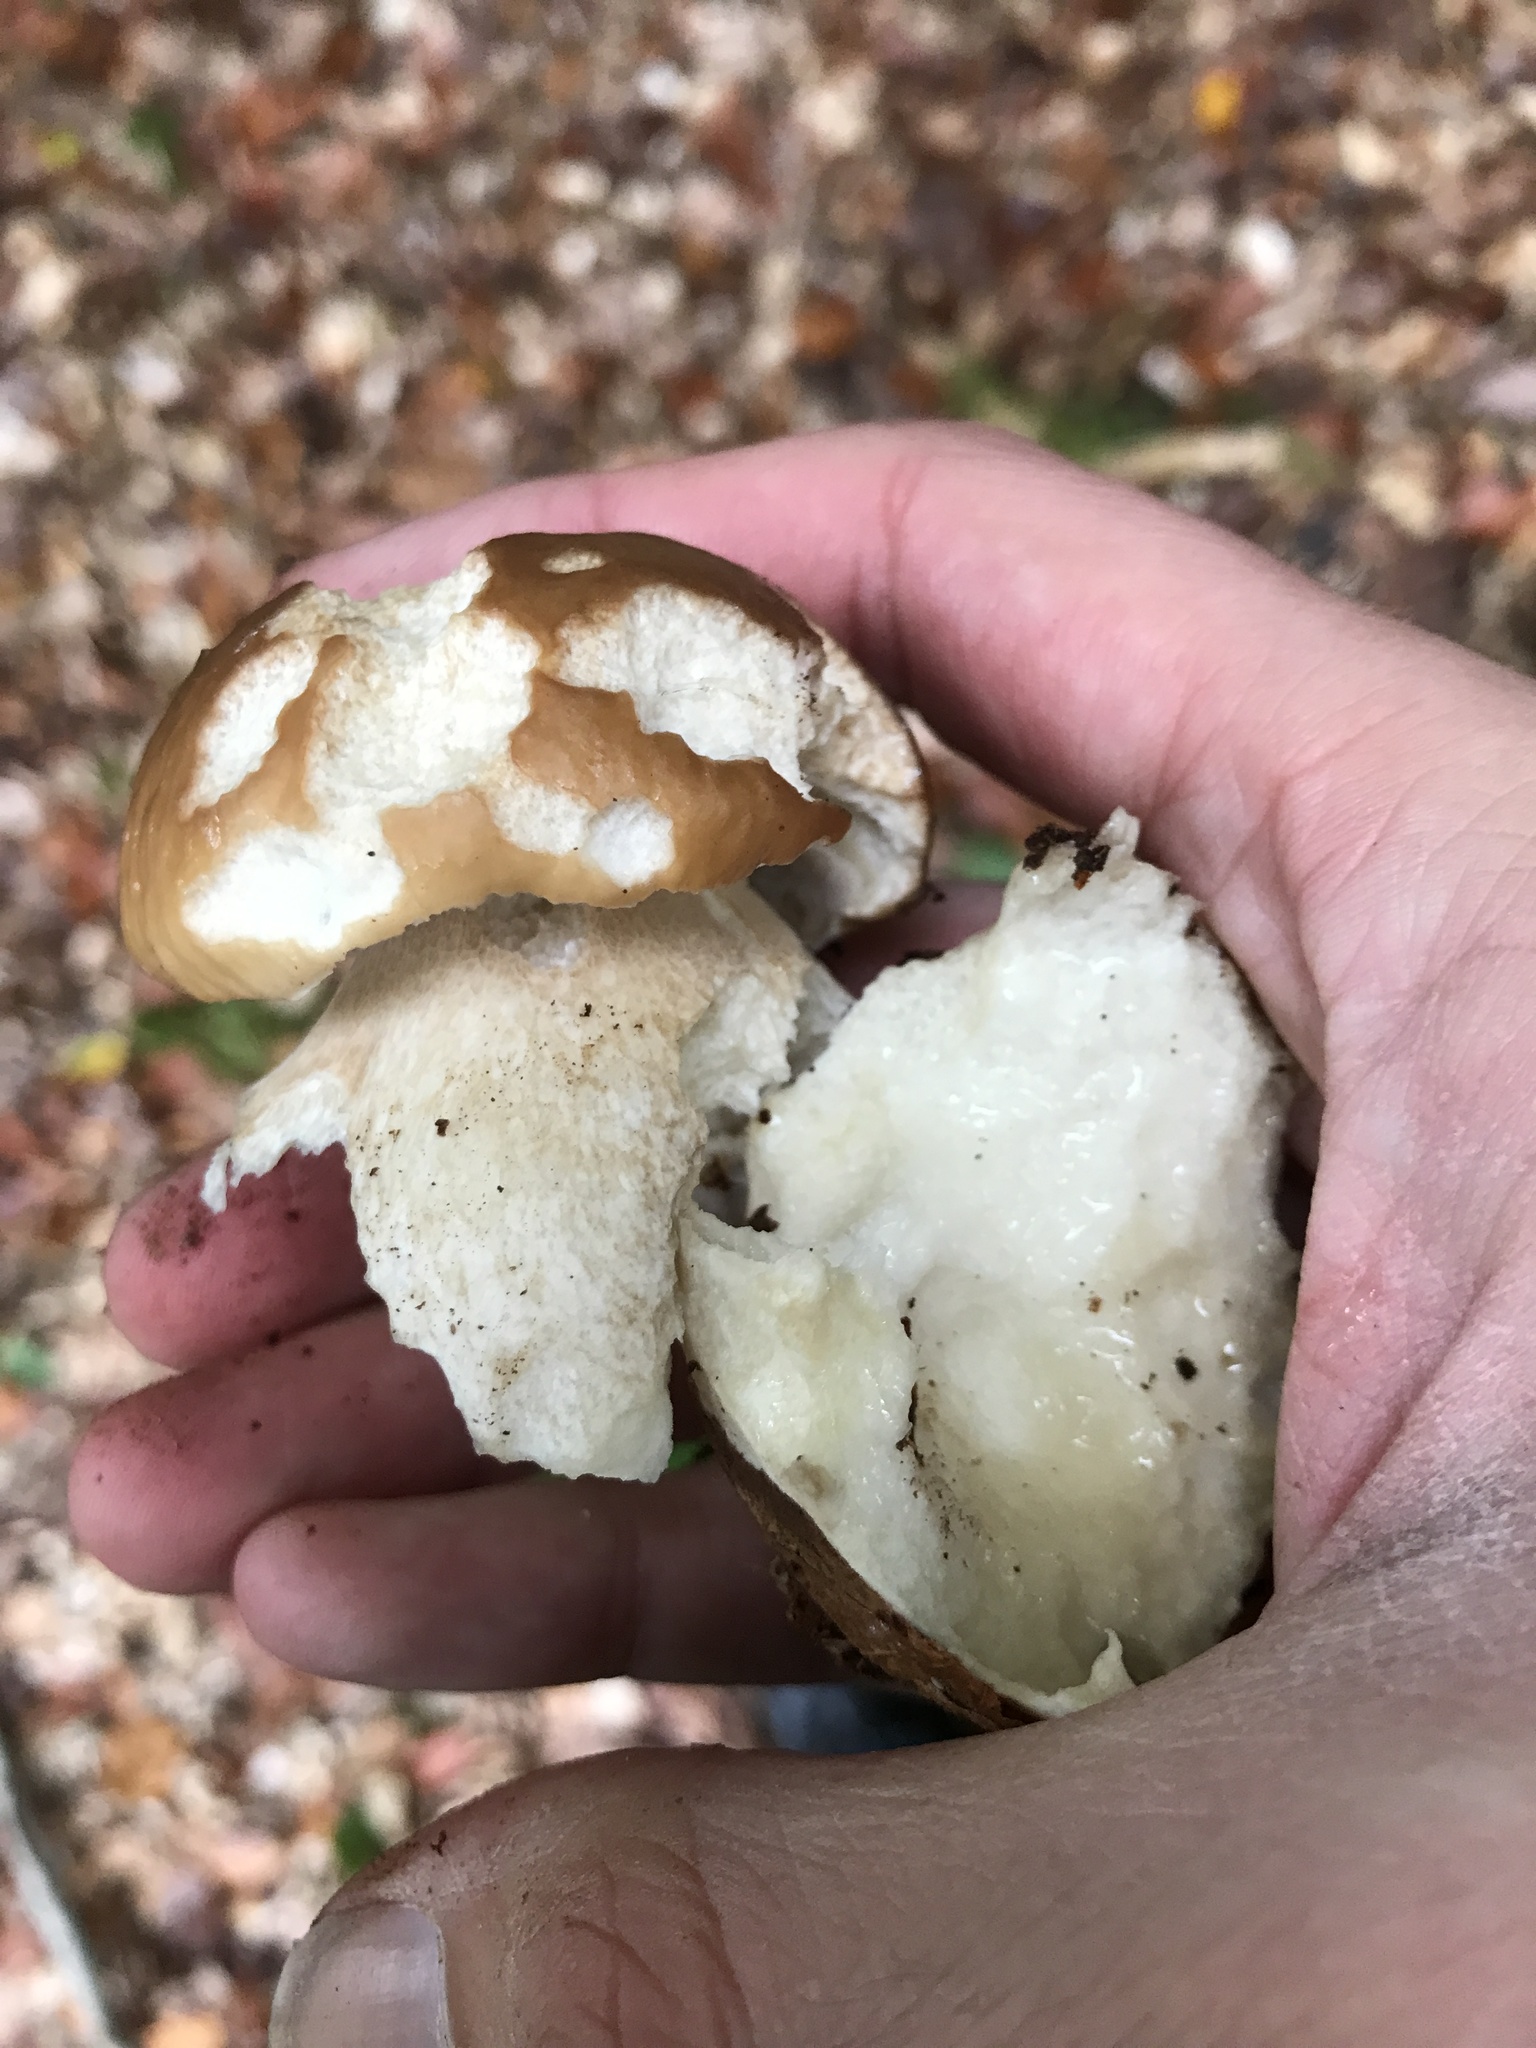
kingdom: Fungi
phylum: Basidiomycota
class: Agaricomycetes
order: Boletales
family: Boletaceae
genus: Boletus
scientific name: Boletus edulis
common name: Cep
